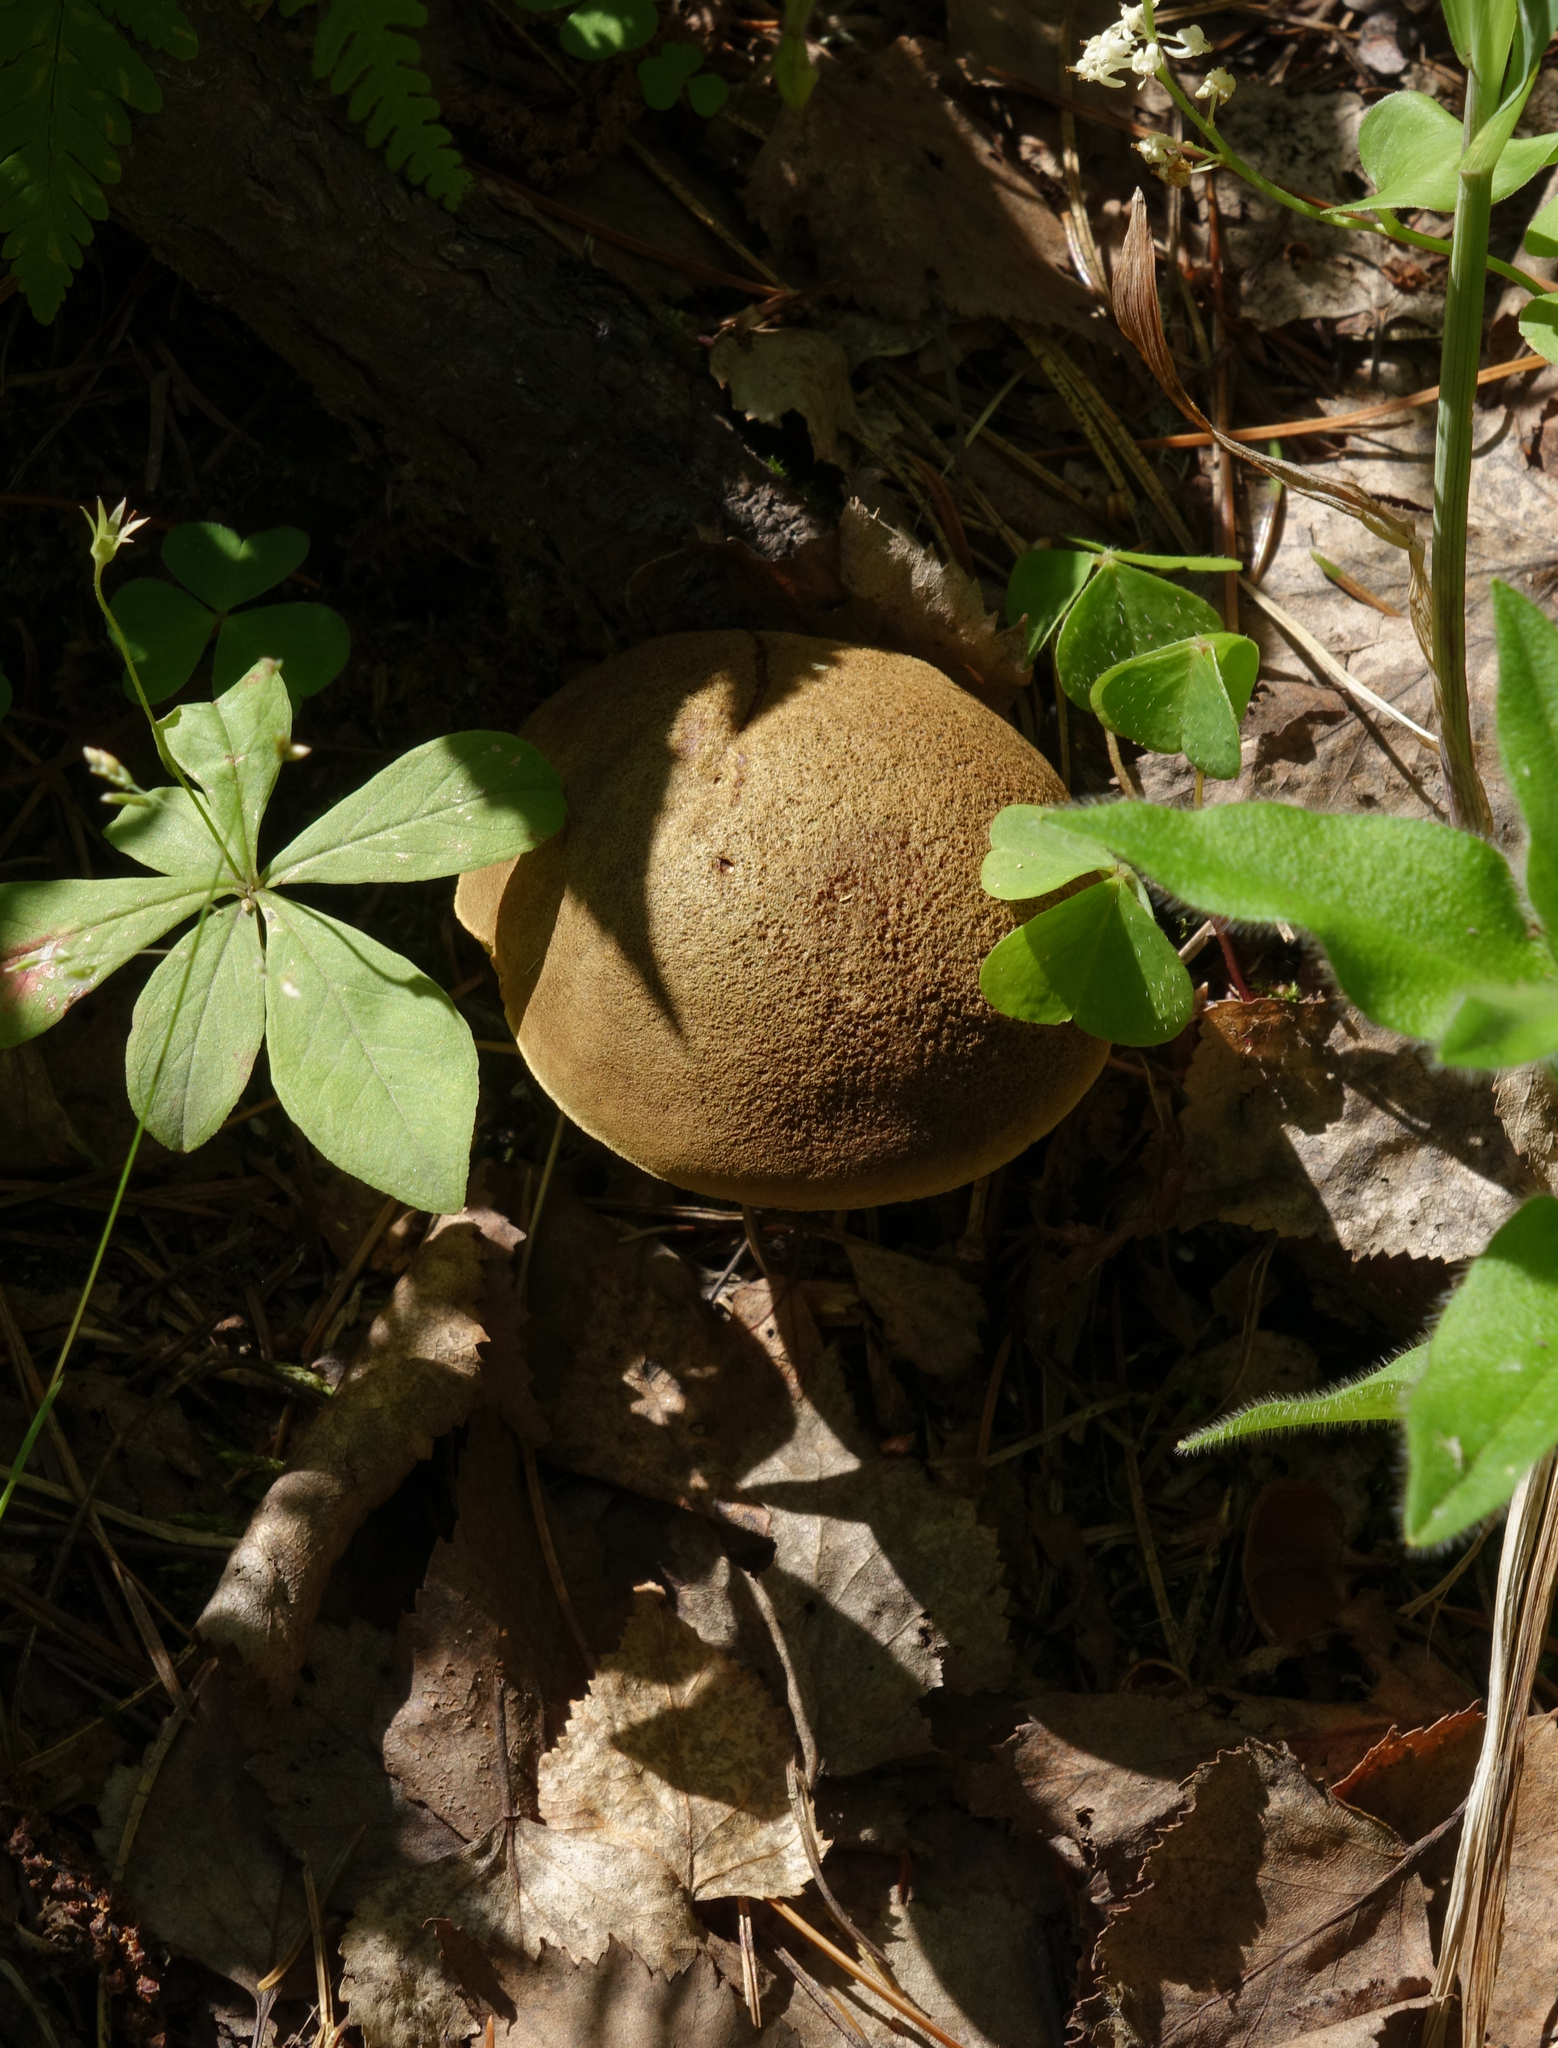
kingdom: Plantae
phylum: Tracheophyta
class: Magnoliopsida
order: Ericales
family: Primulaceae
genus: Lysimachia
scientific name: Lysimachia europaea
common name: Arctic starflower
